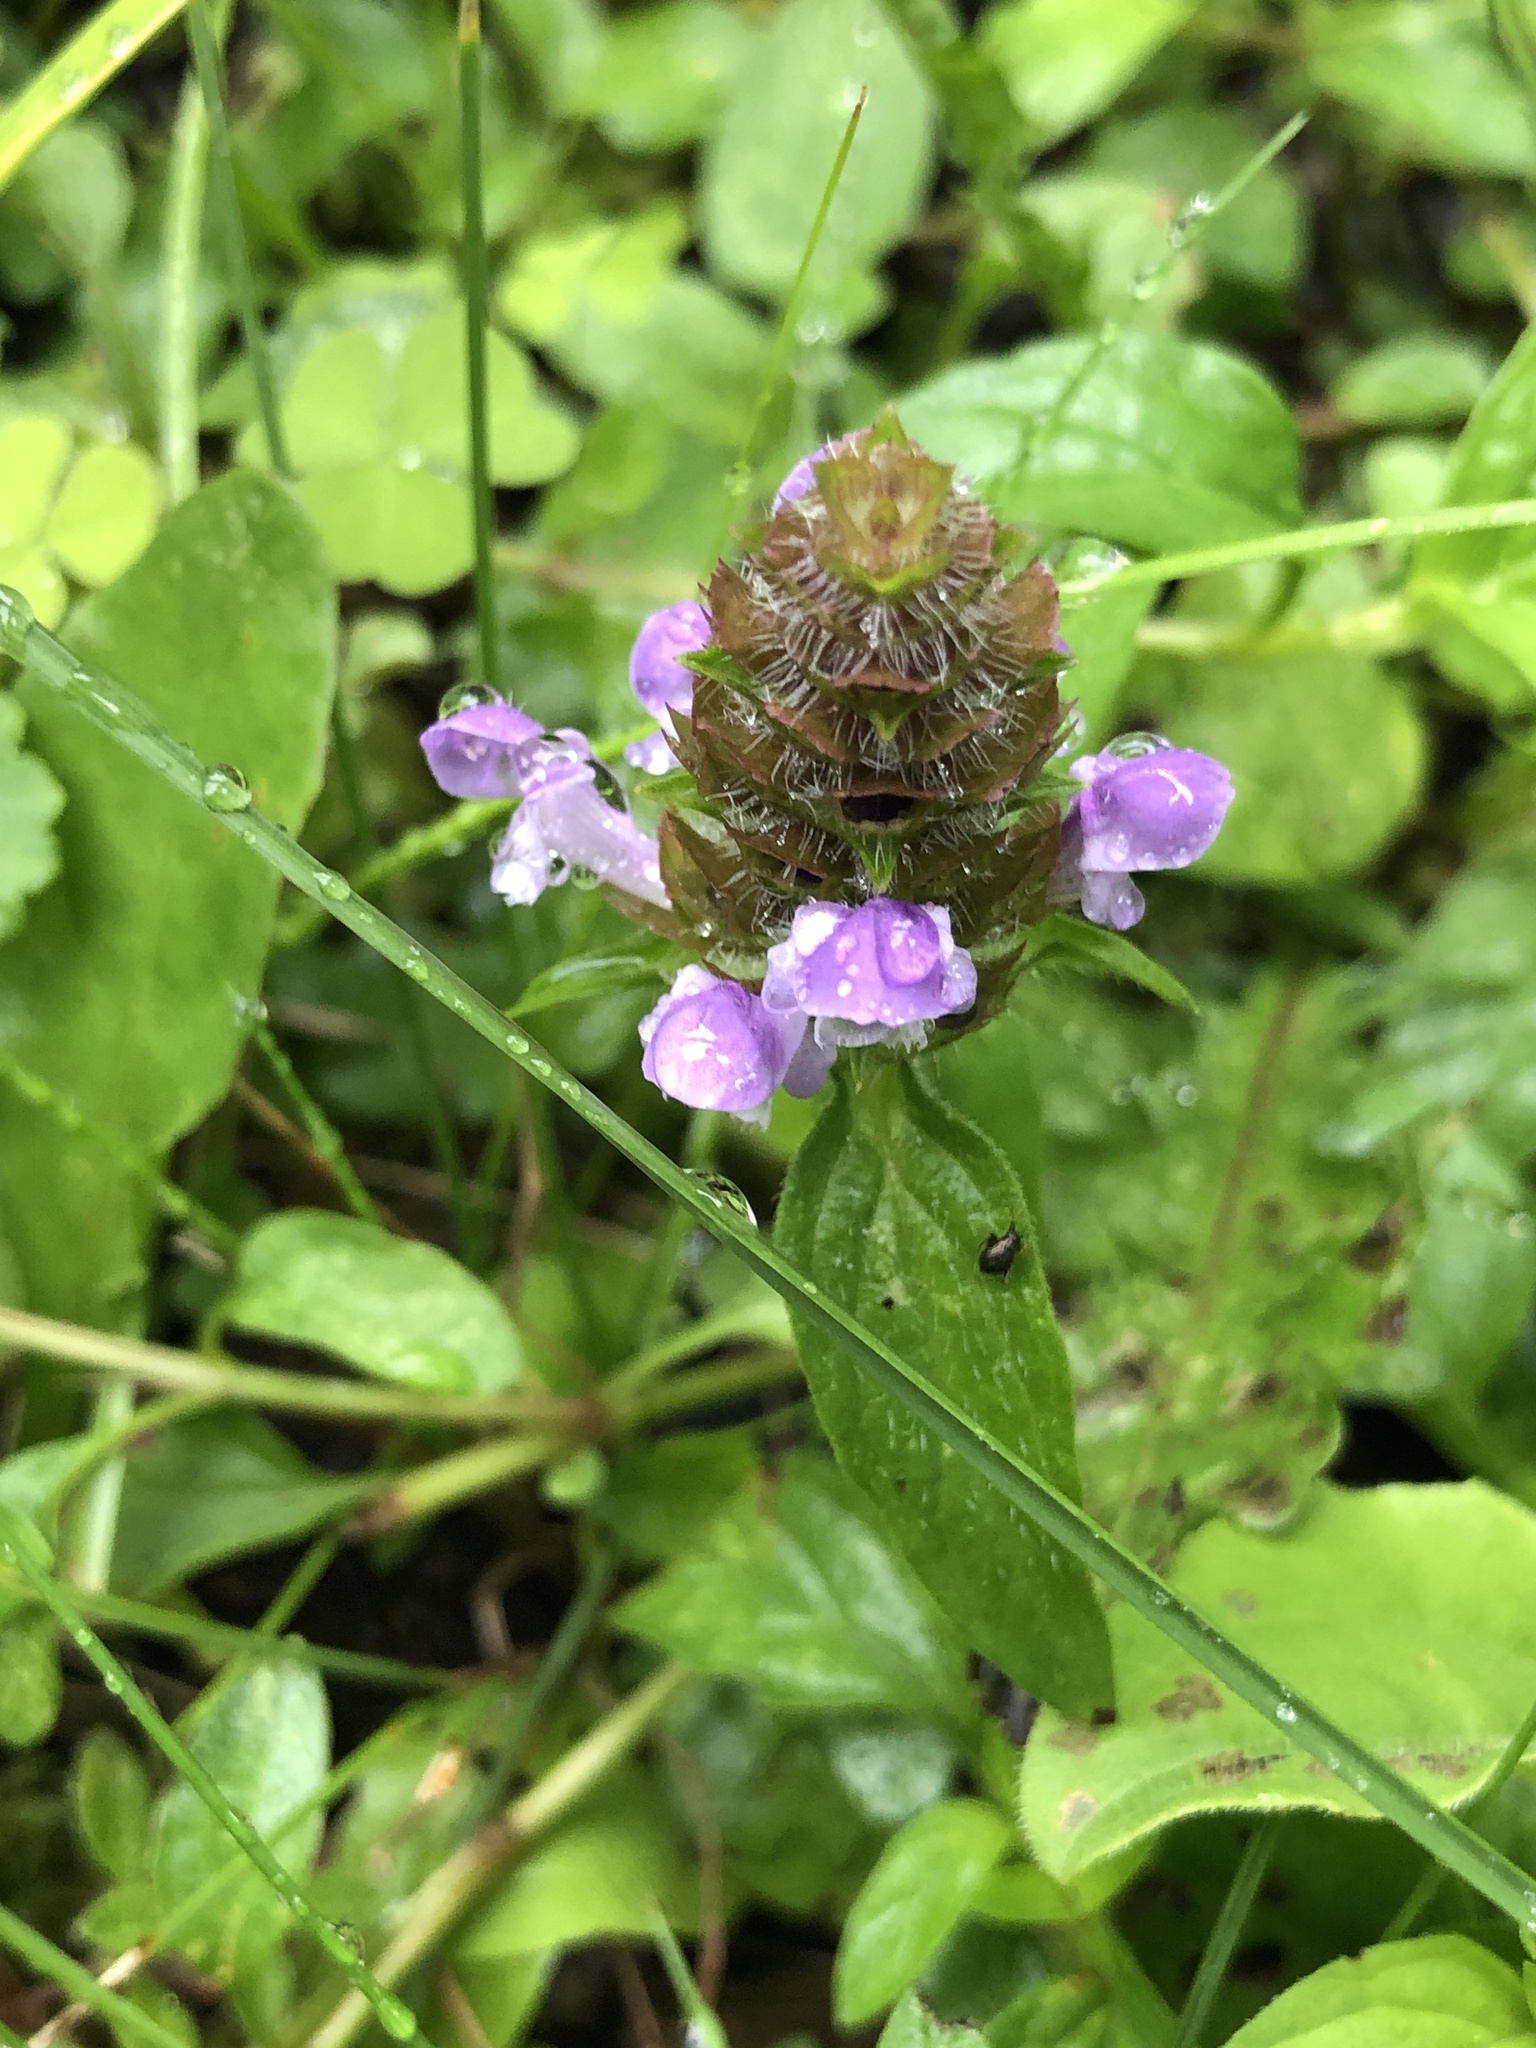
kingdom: Plantae
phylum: Tracheophyta
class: Magnoliopsida
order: Lamiales
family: Lamiaceae
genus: Prunella
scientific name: Prunella vulgaris
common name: Heal-all
